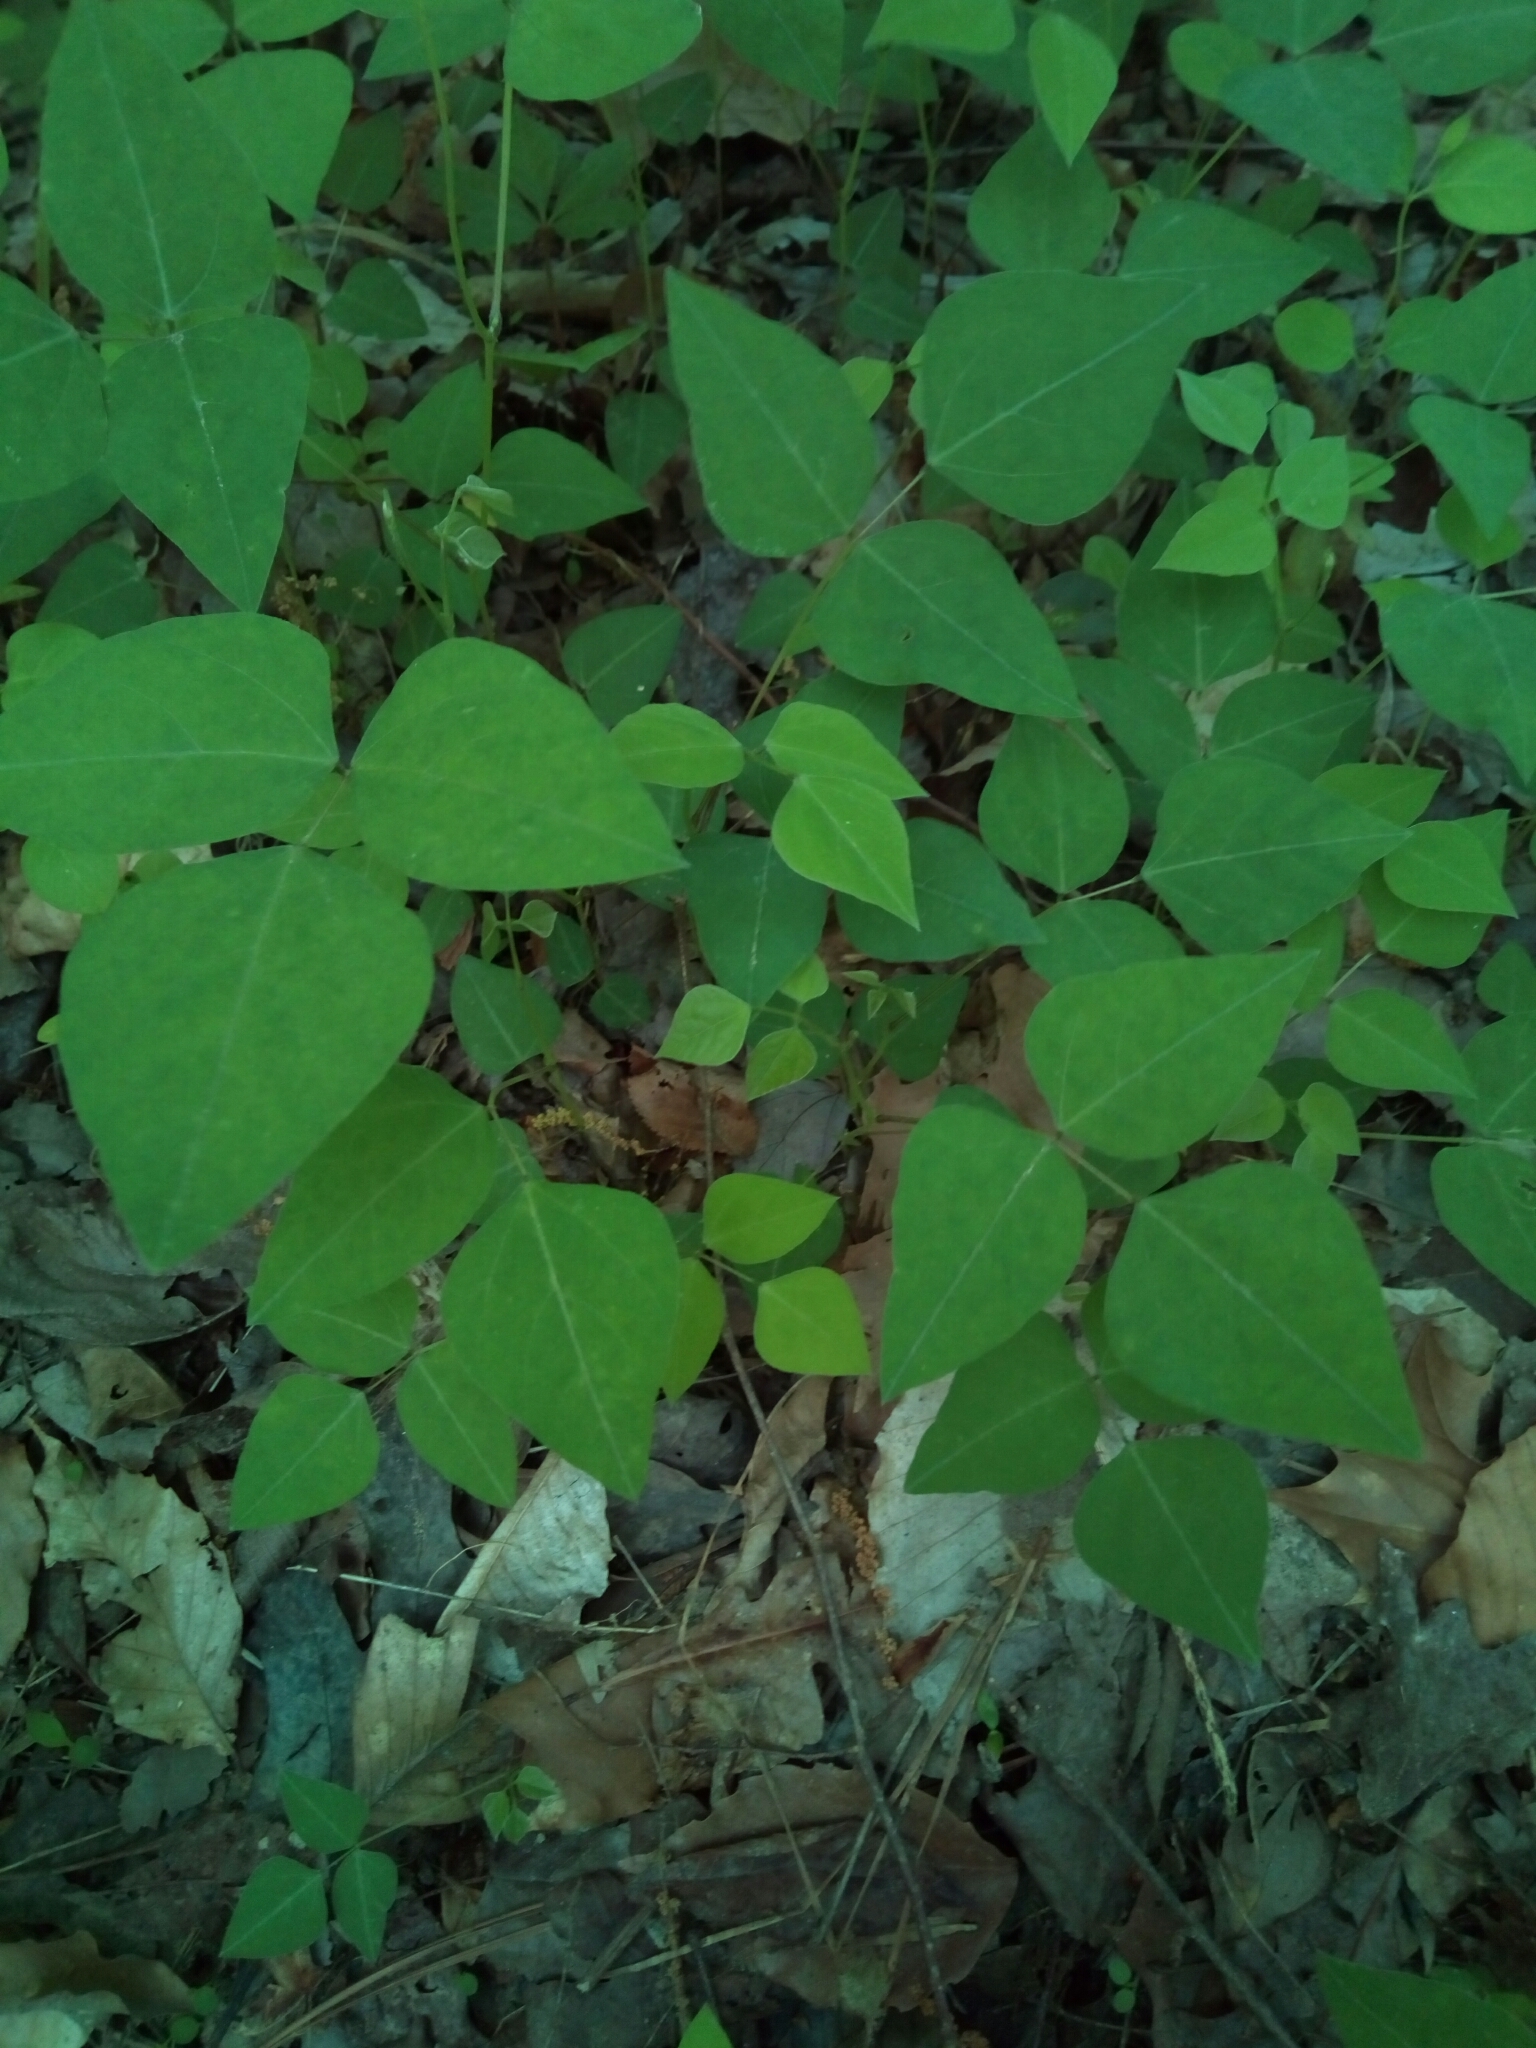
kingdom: Plantae
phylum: Tracheophyta
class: Magnoliopsida
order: Fabales
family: Fabaceae
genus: Amphicarpaea
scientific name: Amphicarpaea bracteata
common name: American hog peanut
